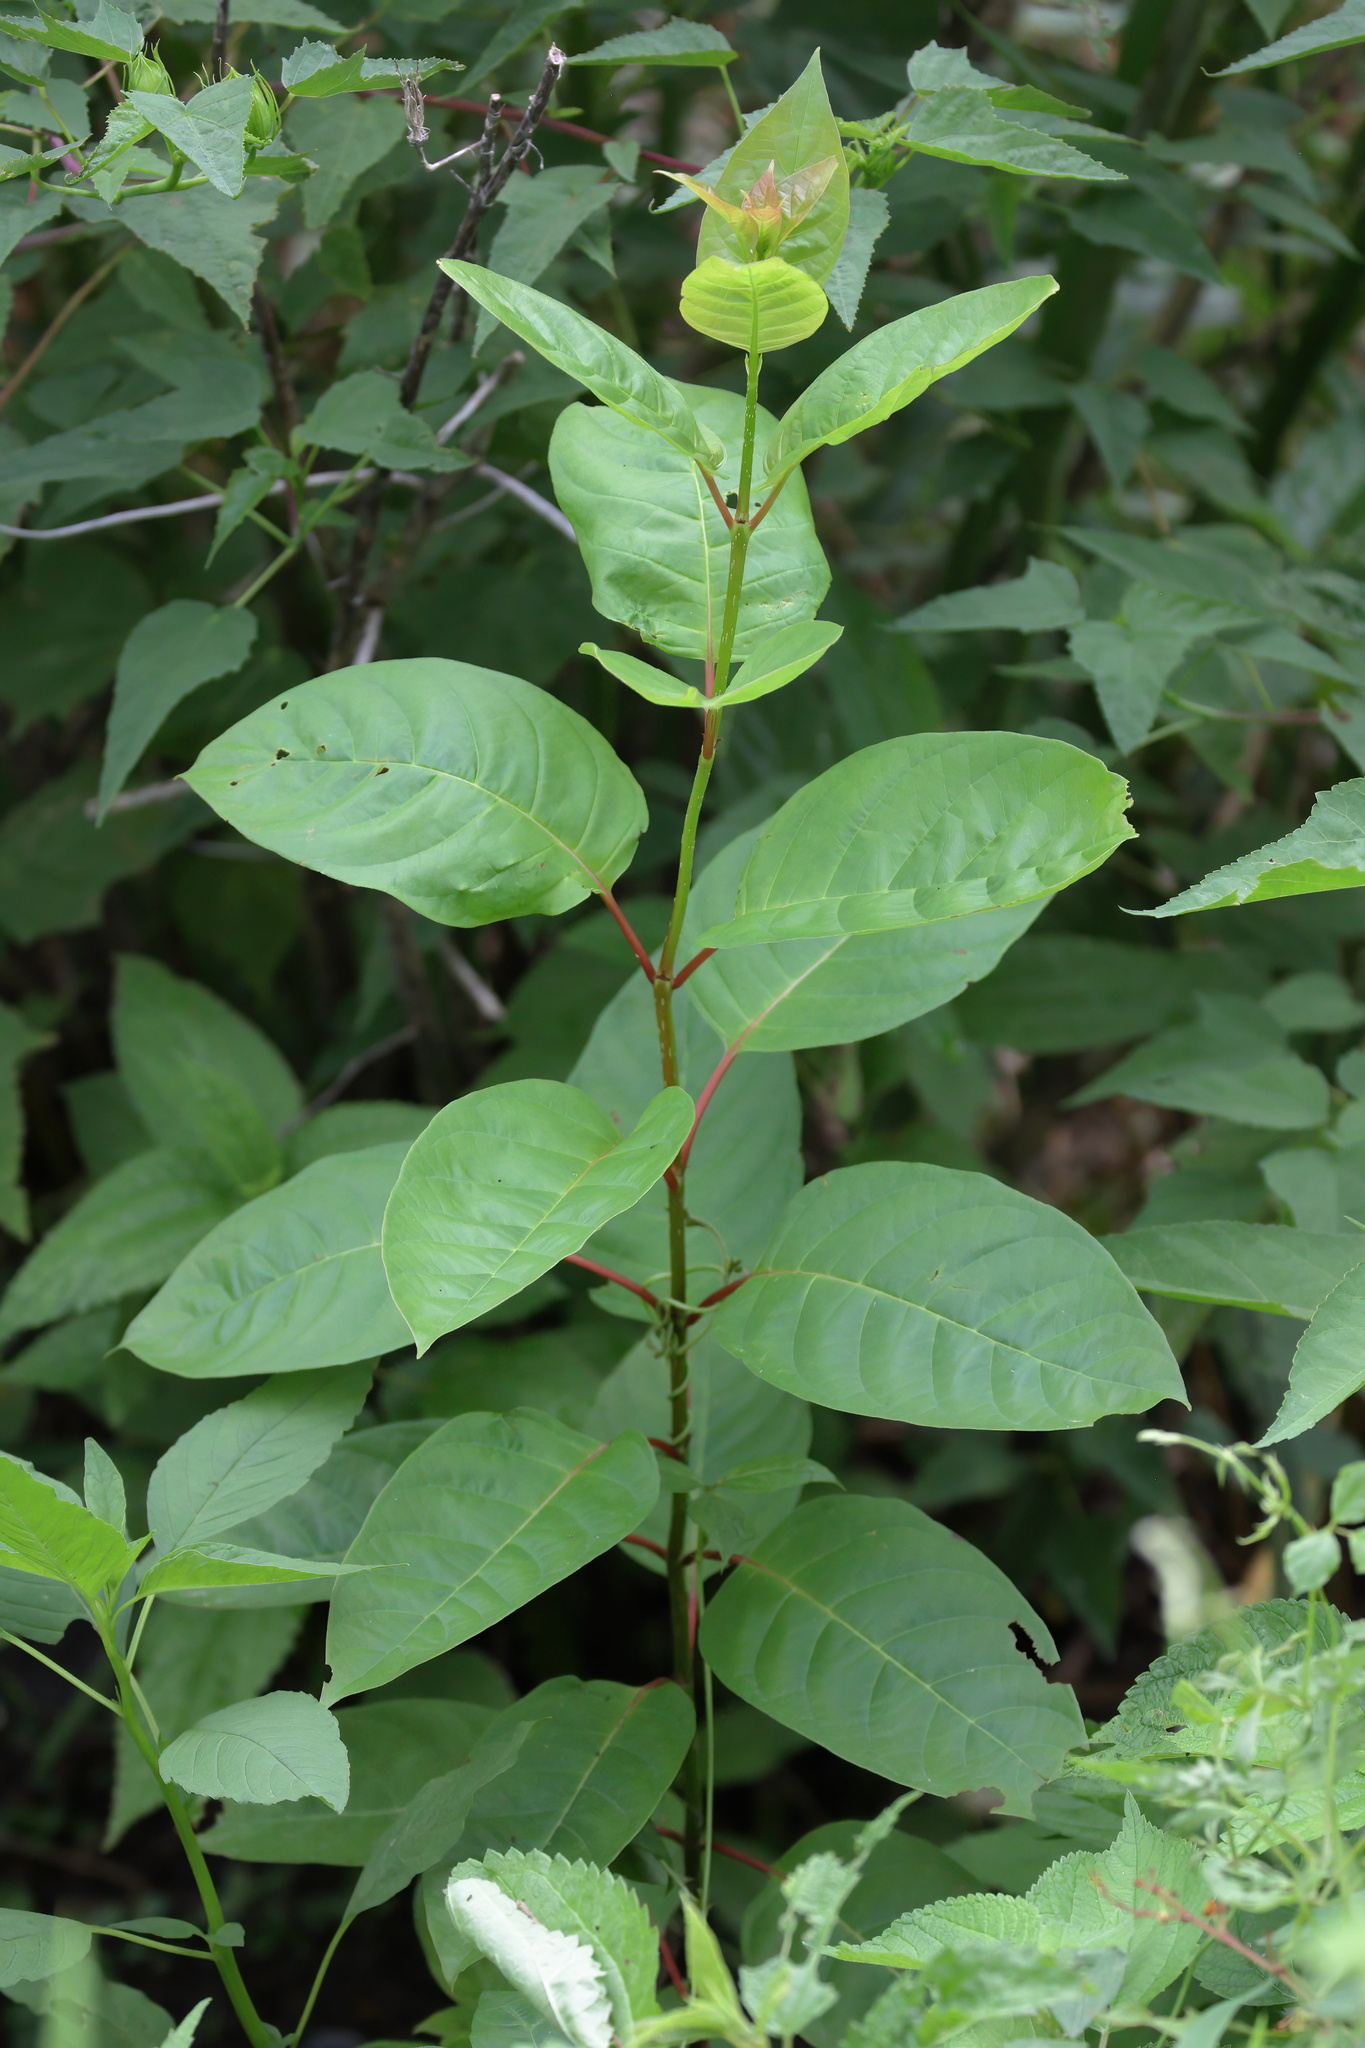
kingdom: Plantae
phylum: Tracheophyta
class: Magnoliopsida
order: Gentianales
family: Rubiaceae
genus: Cephalanthus
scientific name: Cephalanthus occidentalis
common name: Button-willow
